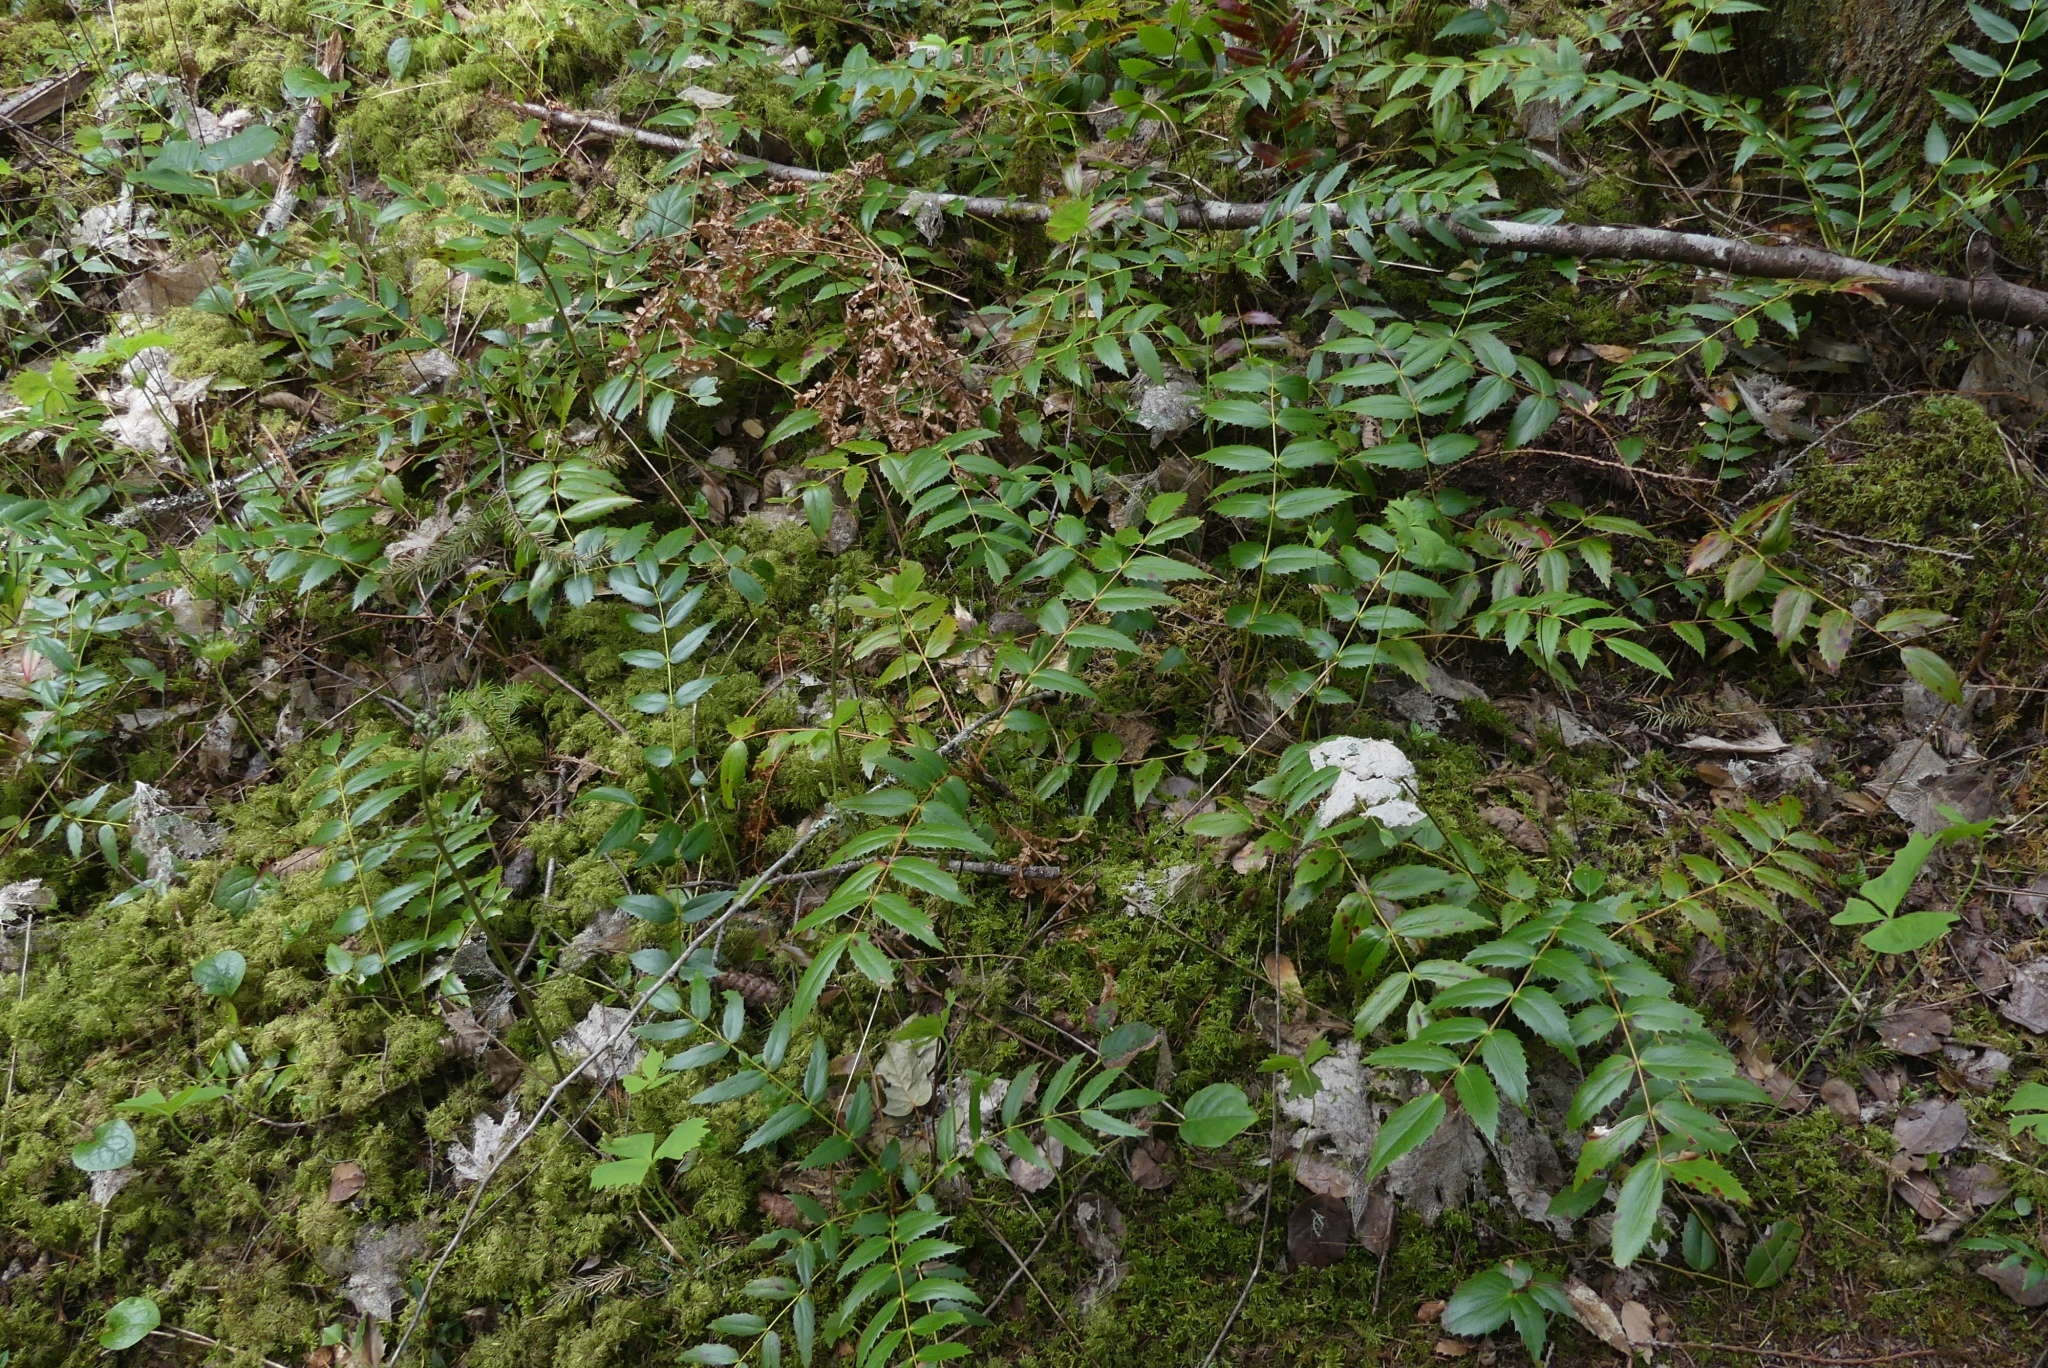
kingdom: Plantae
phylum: Tracheophyta
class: Magnoliopsida
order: Ranunculales
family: Berberidaceae
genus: Mahonia
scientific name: Mahonia nervosa
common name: Cascade oregon-grape
